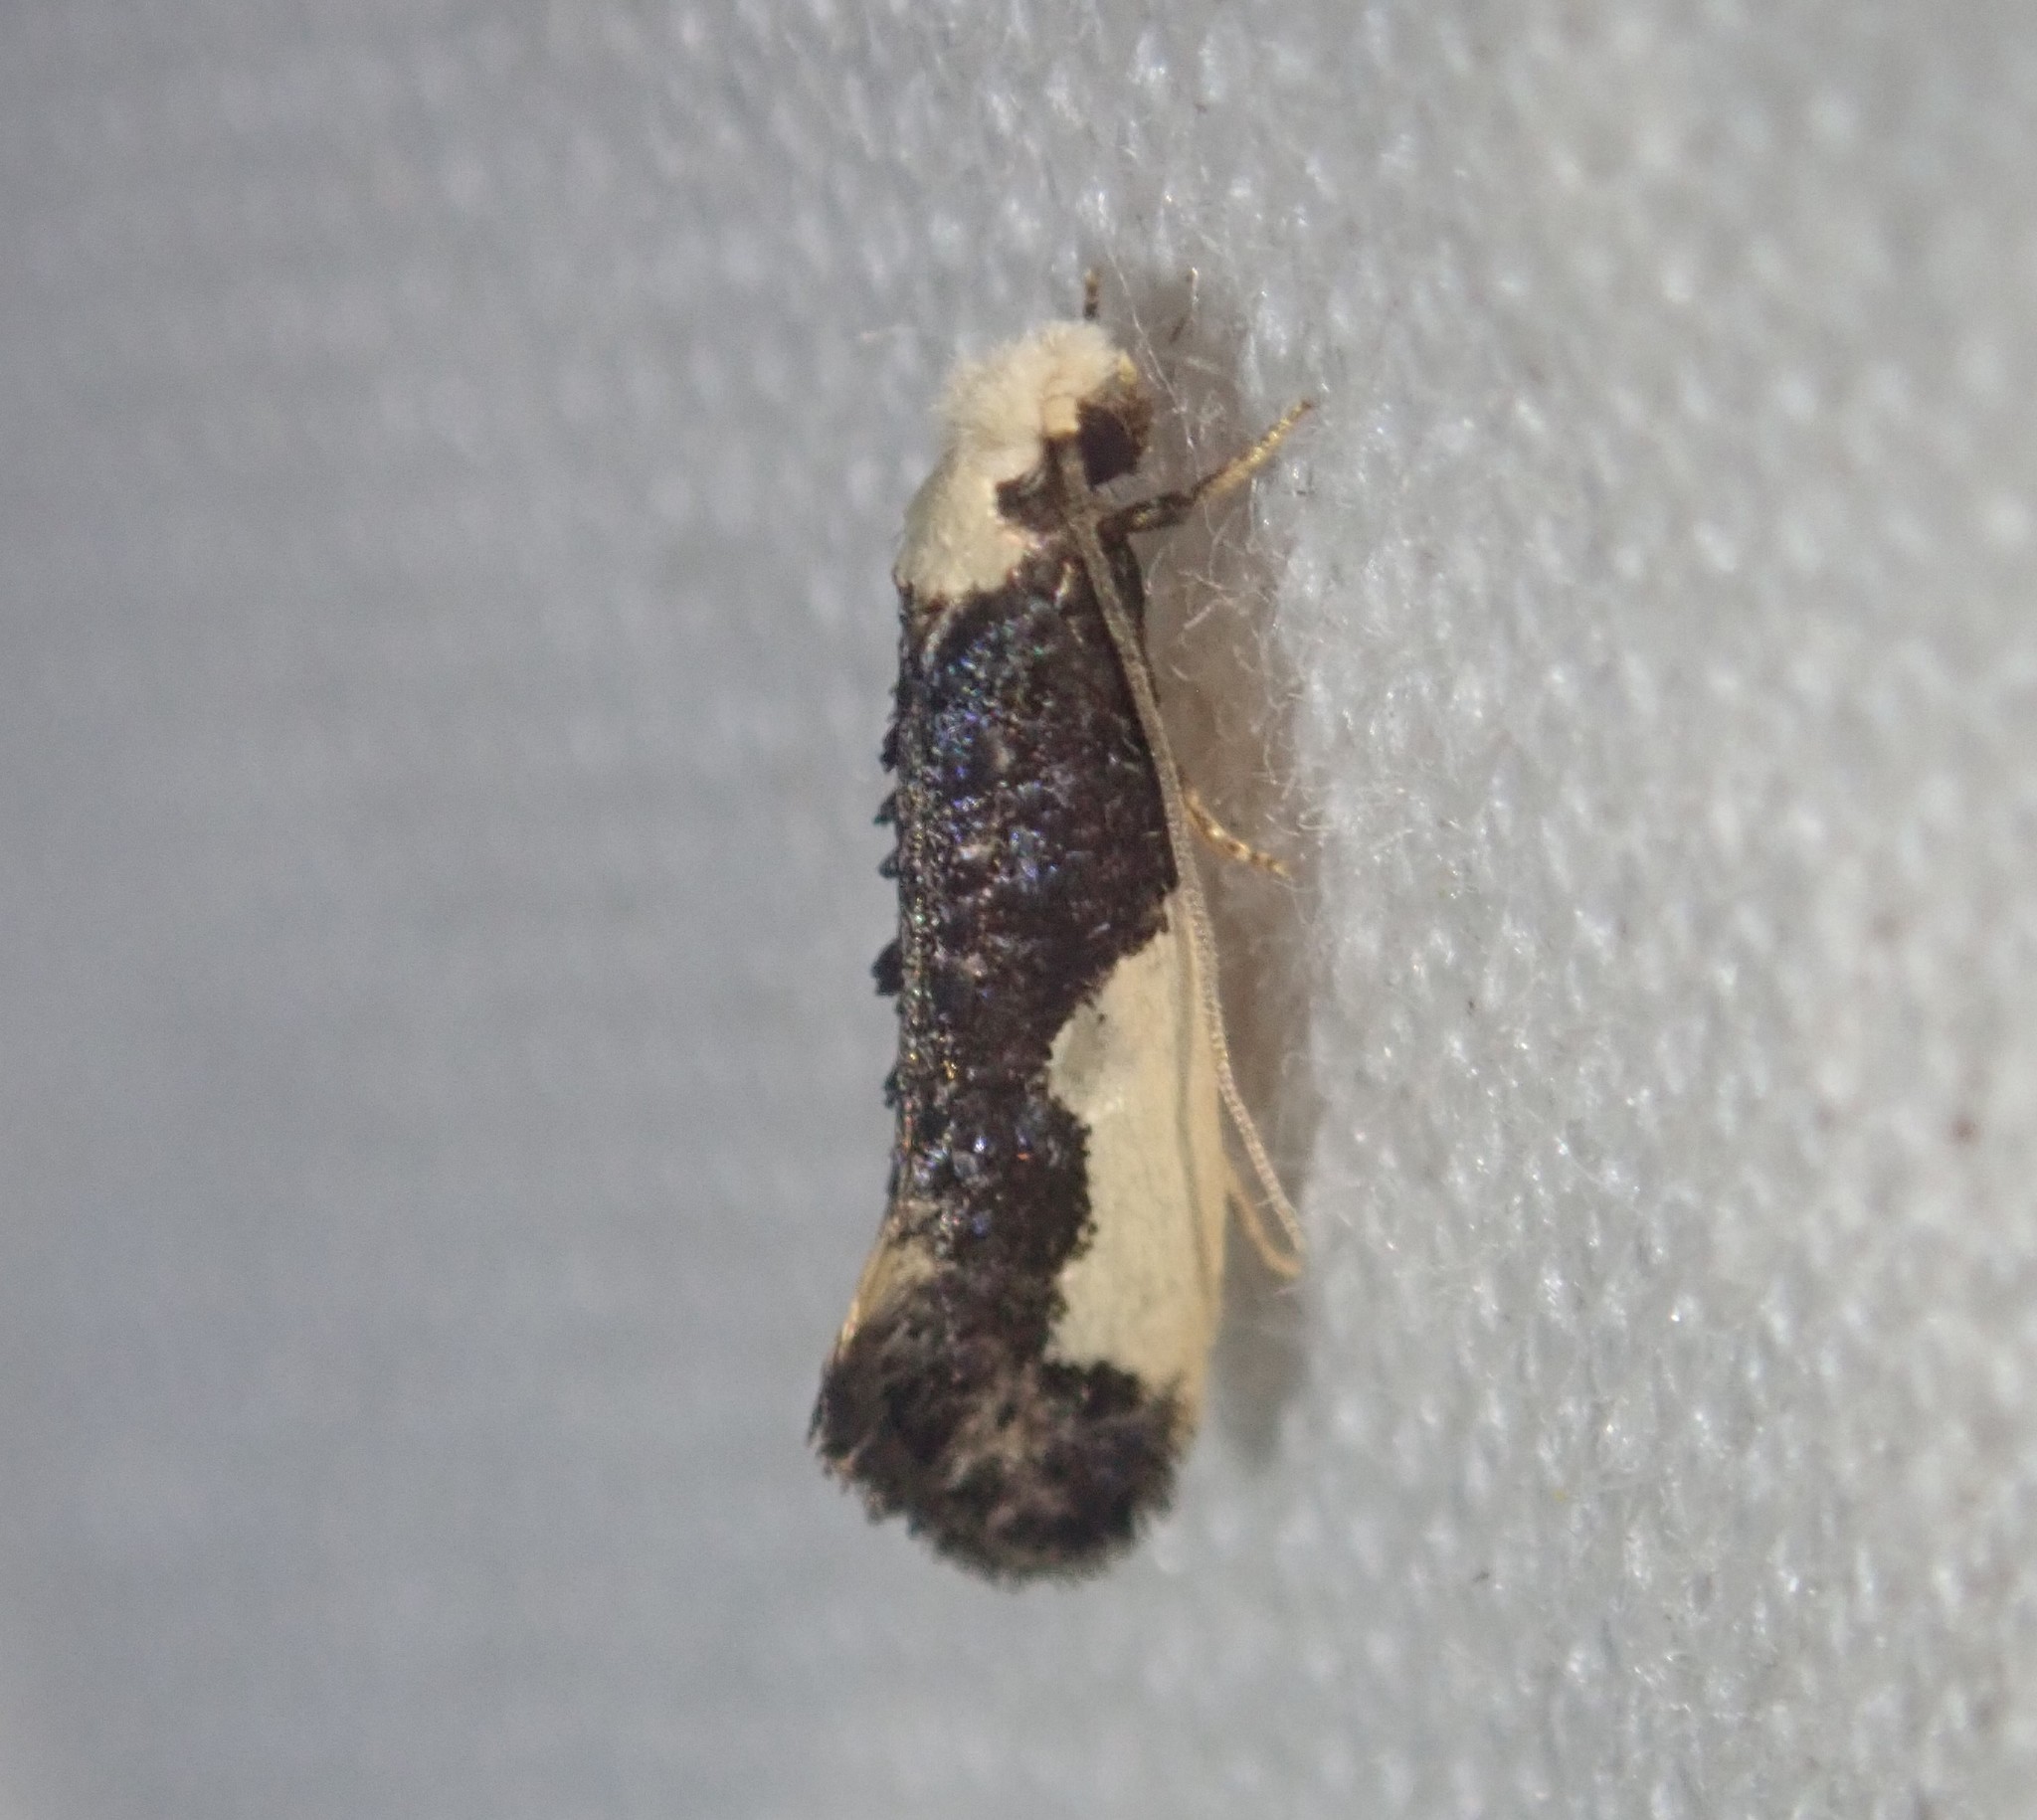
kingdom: Animalia
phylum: Arthropoda
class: Insecta
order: Lepidoptera
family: Tineidae
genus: Monopis
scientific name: Monopis monachella
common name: Moth
